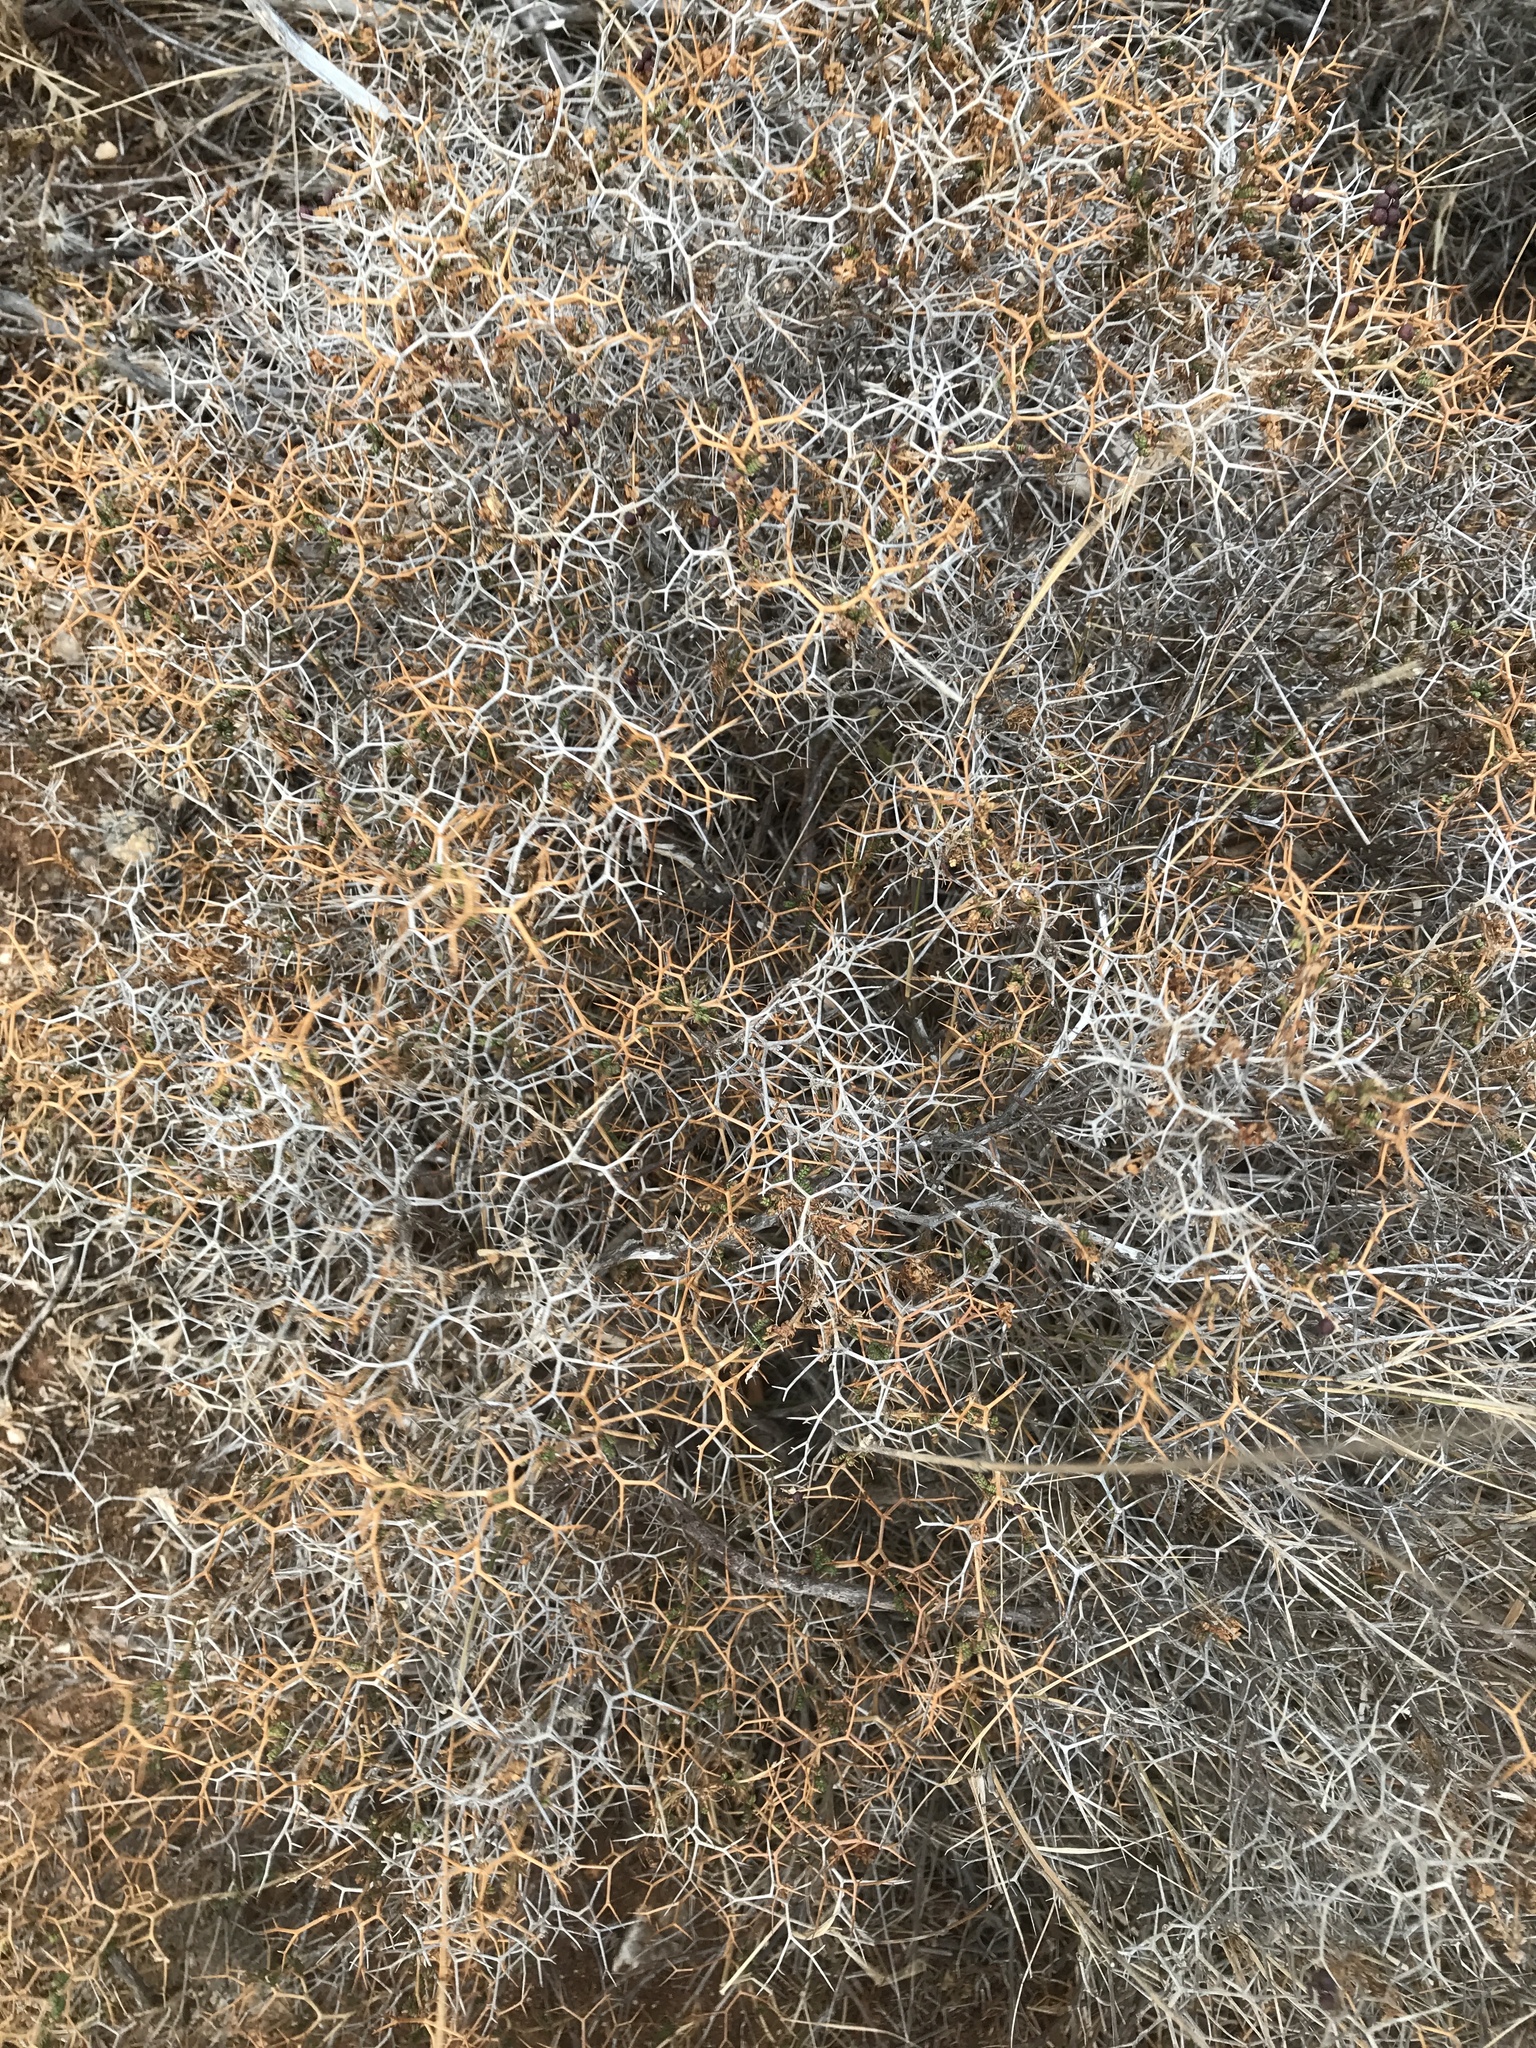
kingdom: Plantae
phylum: Tracheophyta
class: Magnoliopsida
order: Rosales
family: Rosaceae
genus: Sarcopoterium
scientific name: Sarcopoterium spinosum
